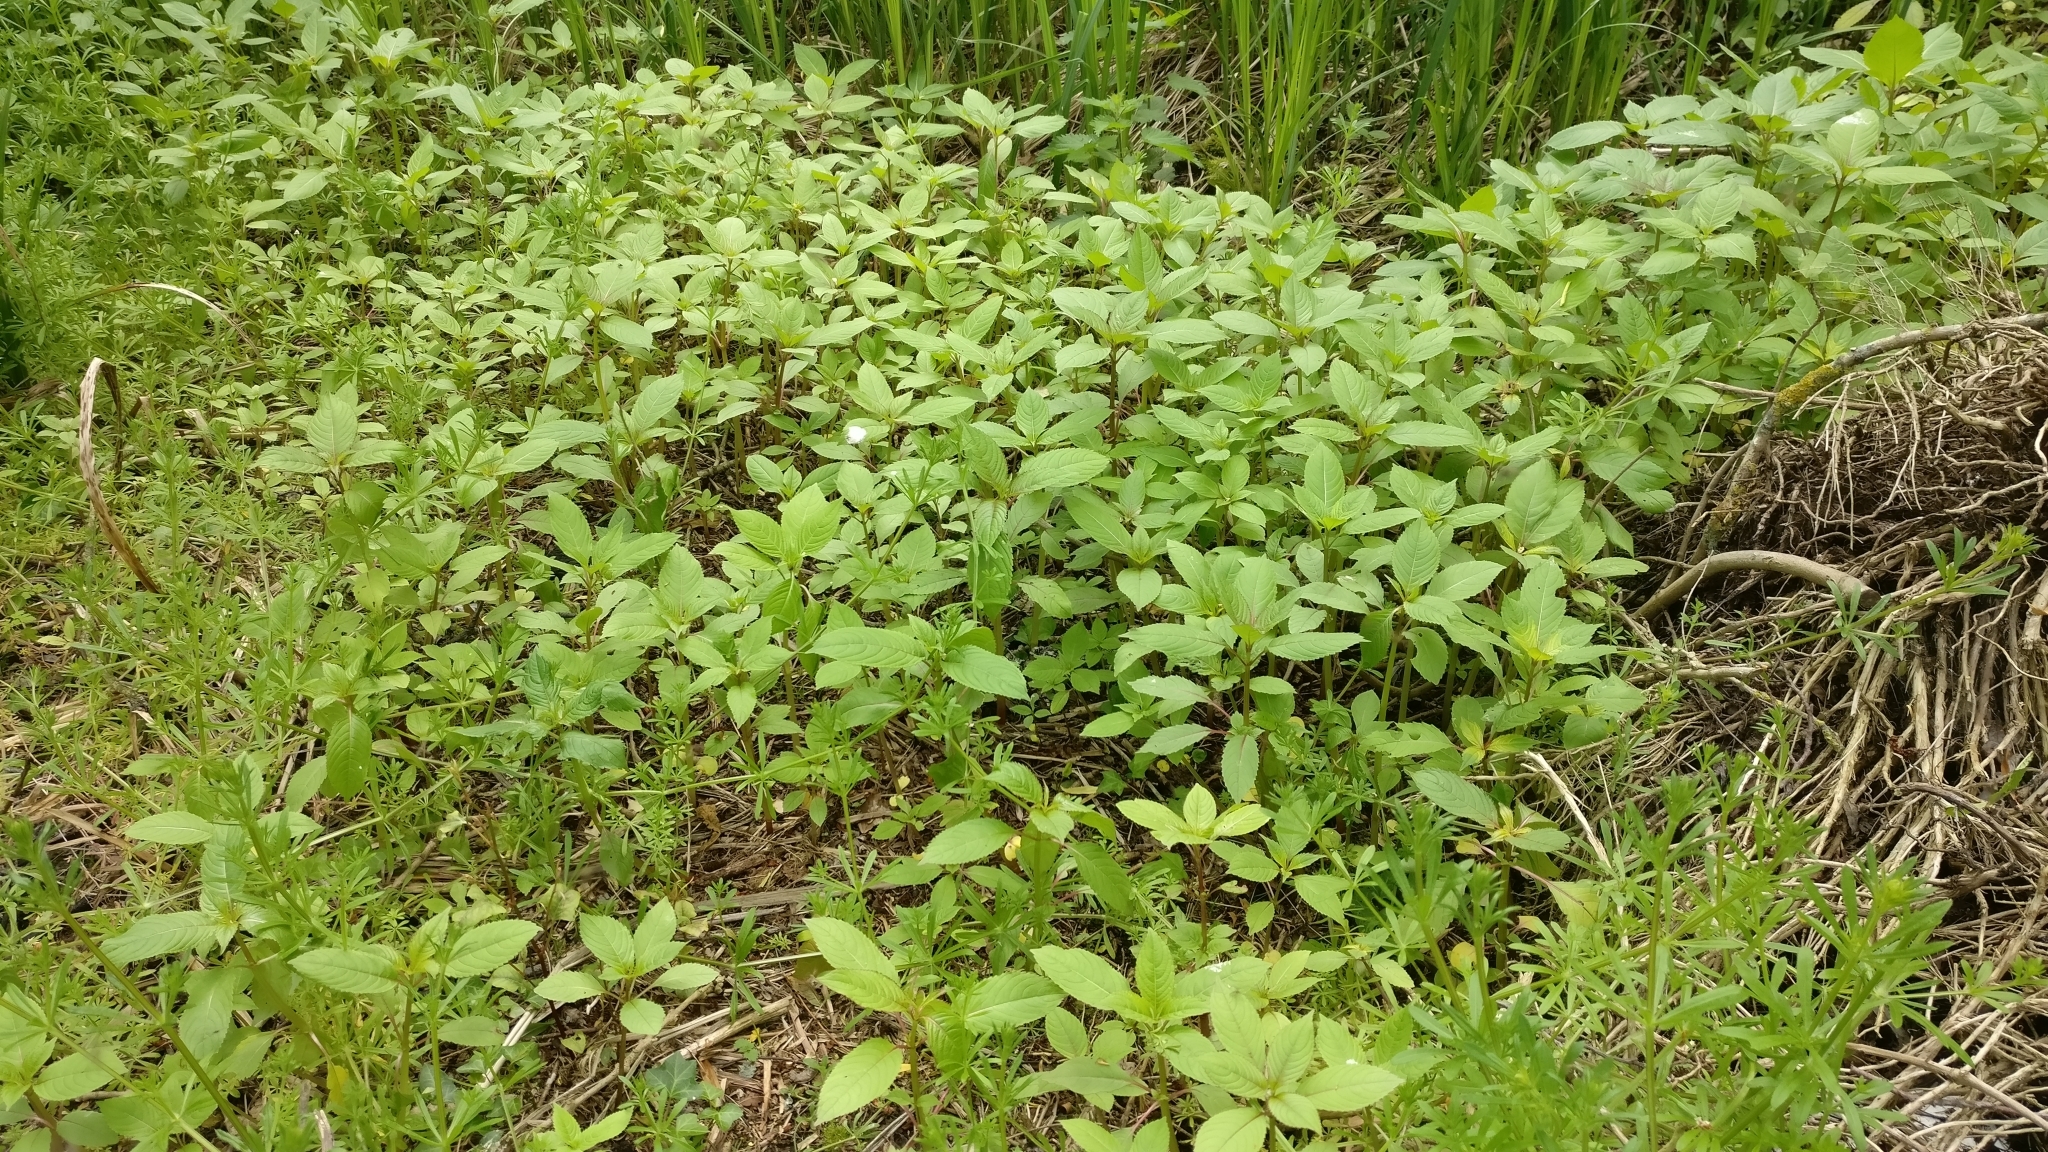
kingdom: Plantae
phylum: Tracheophyta
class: Magnoliopsida
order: Ericales
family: Balsaminaceae
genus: Impatiens
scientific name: Impatiens glandulifera
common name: Himalayan balsam
